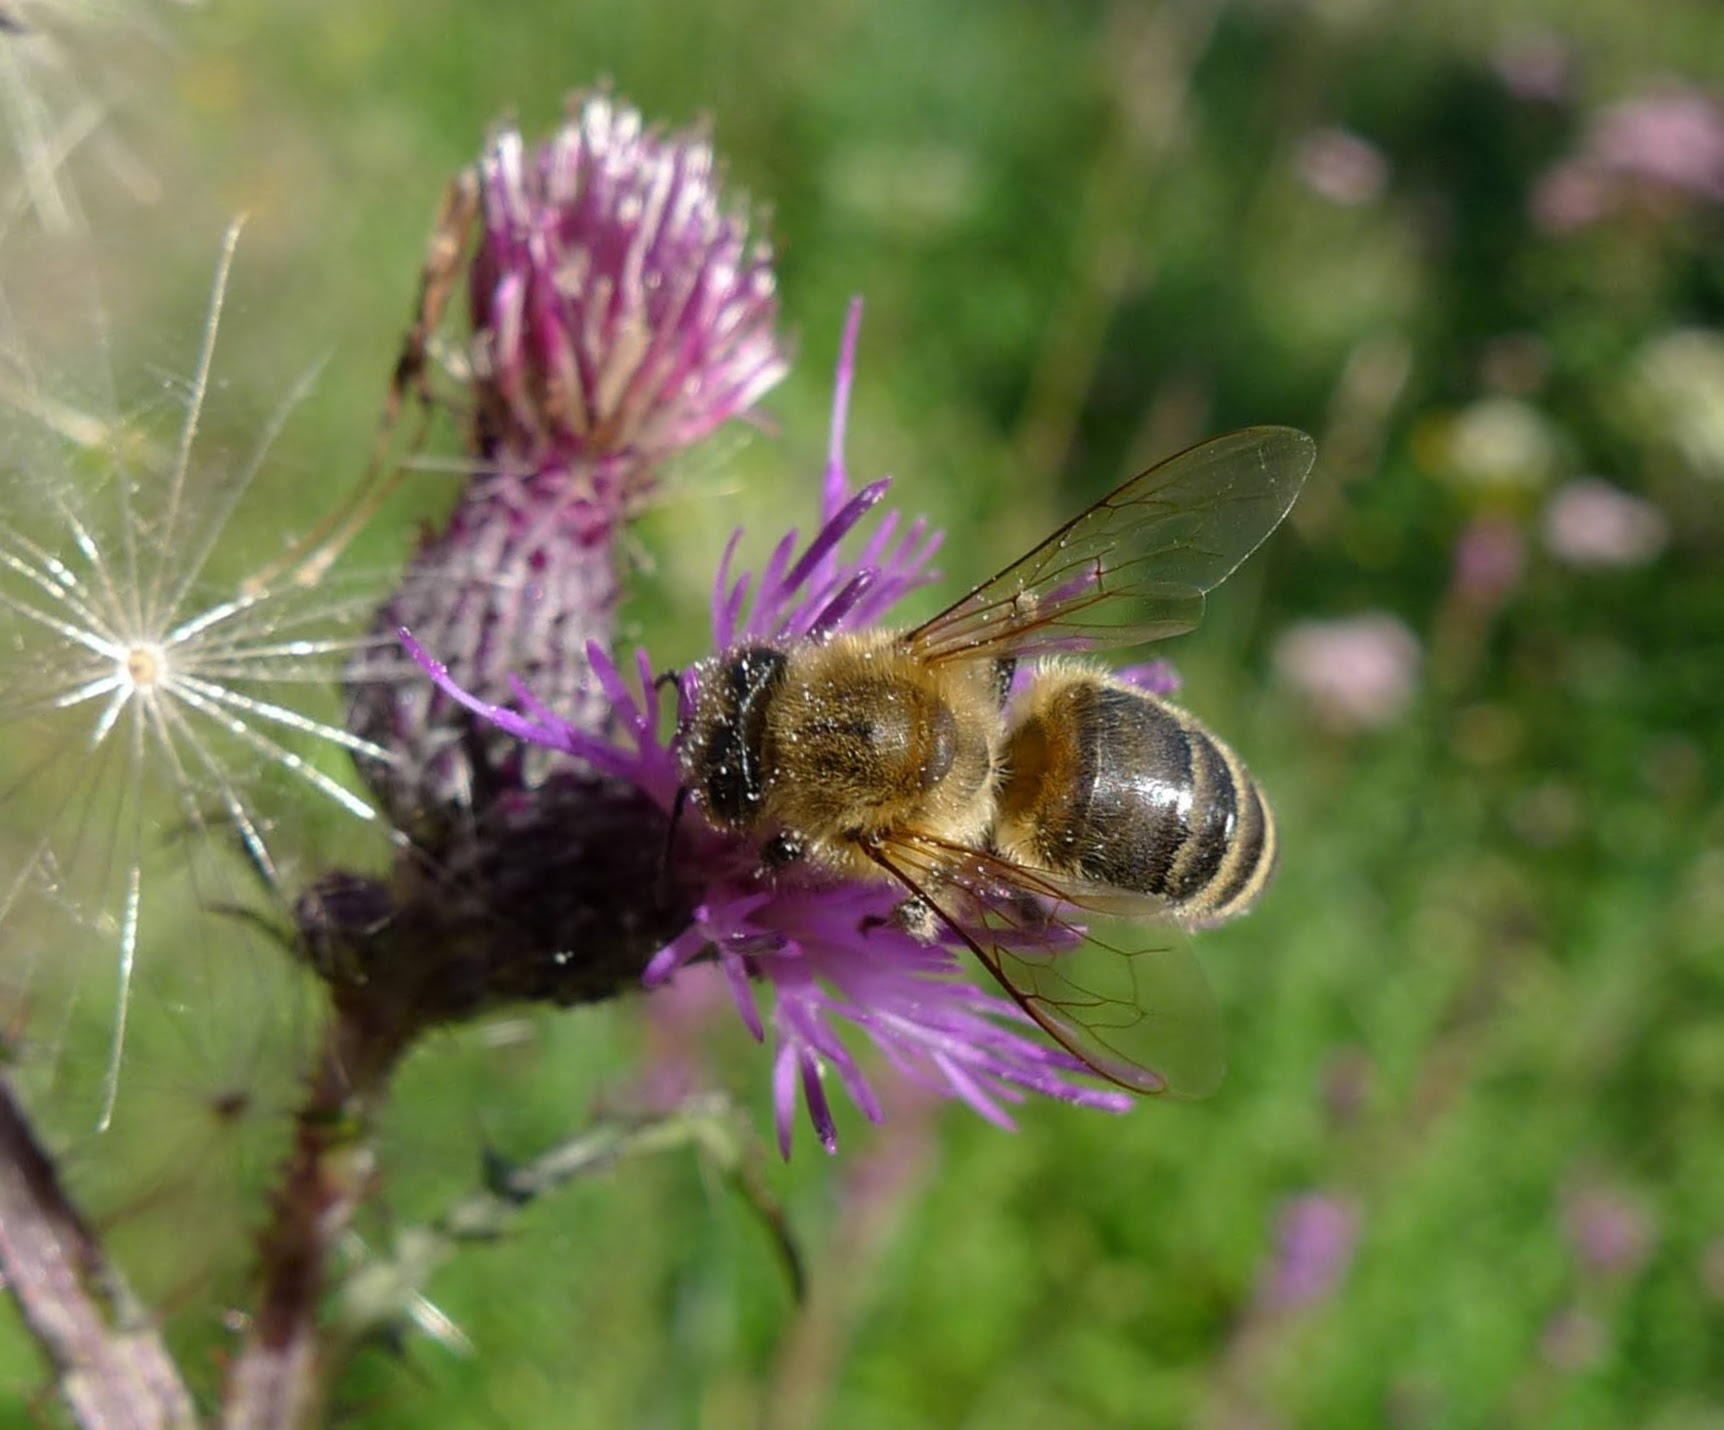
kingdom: Animalia
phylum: Arthropoda
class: Insecta
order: Hymenoptera
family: Apidae
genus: Apis
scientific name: Apis mellifera
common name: Honey bee
